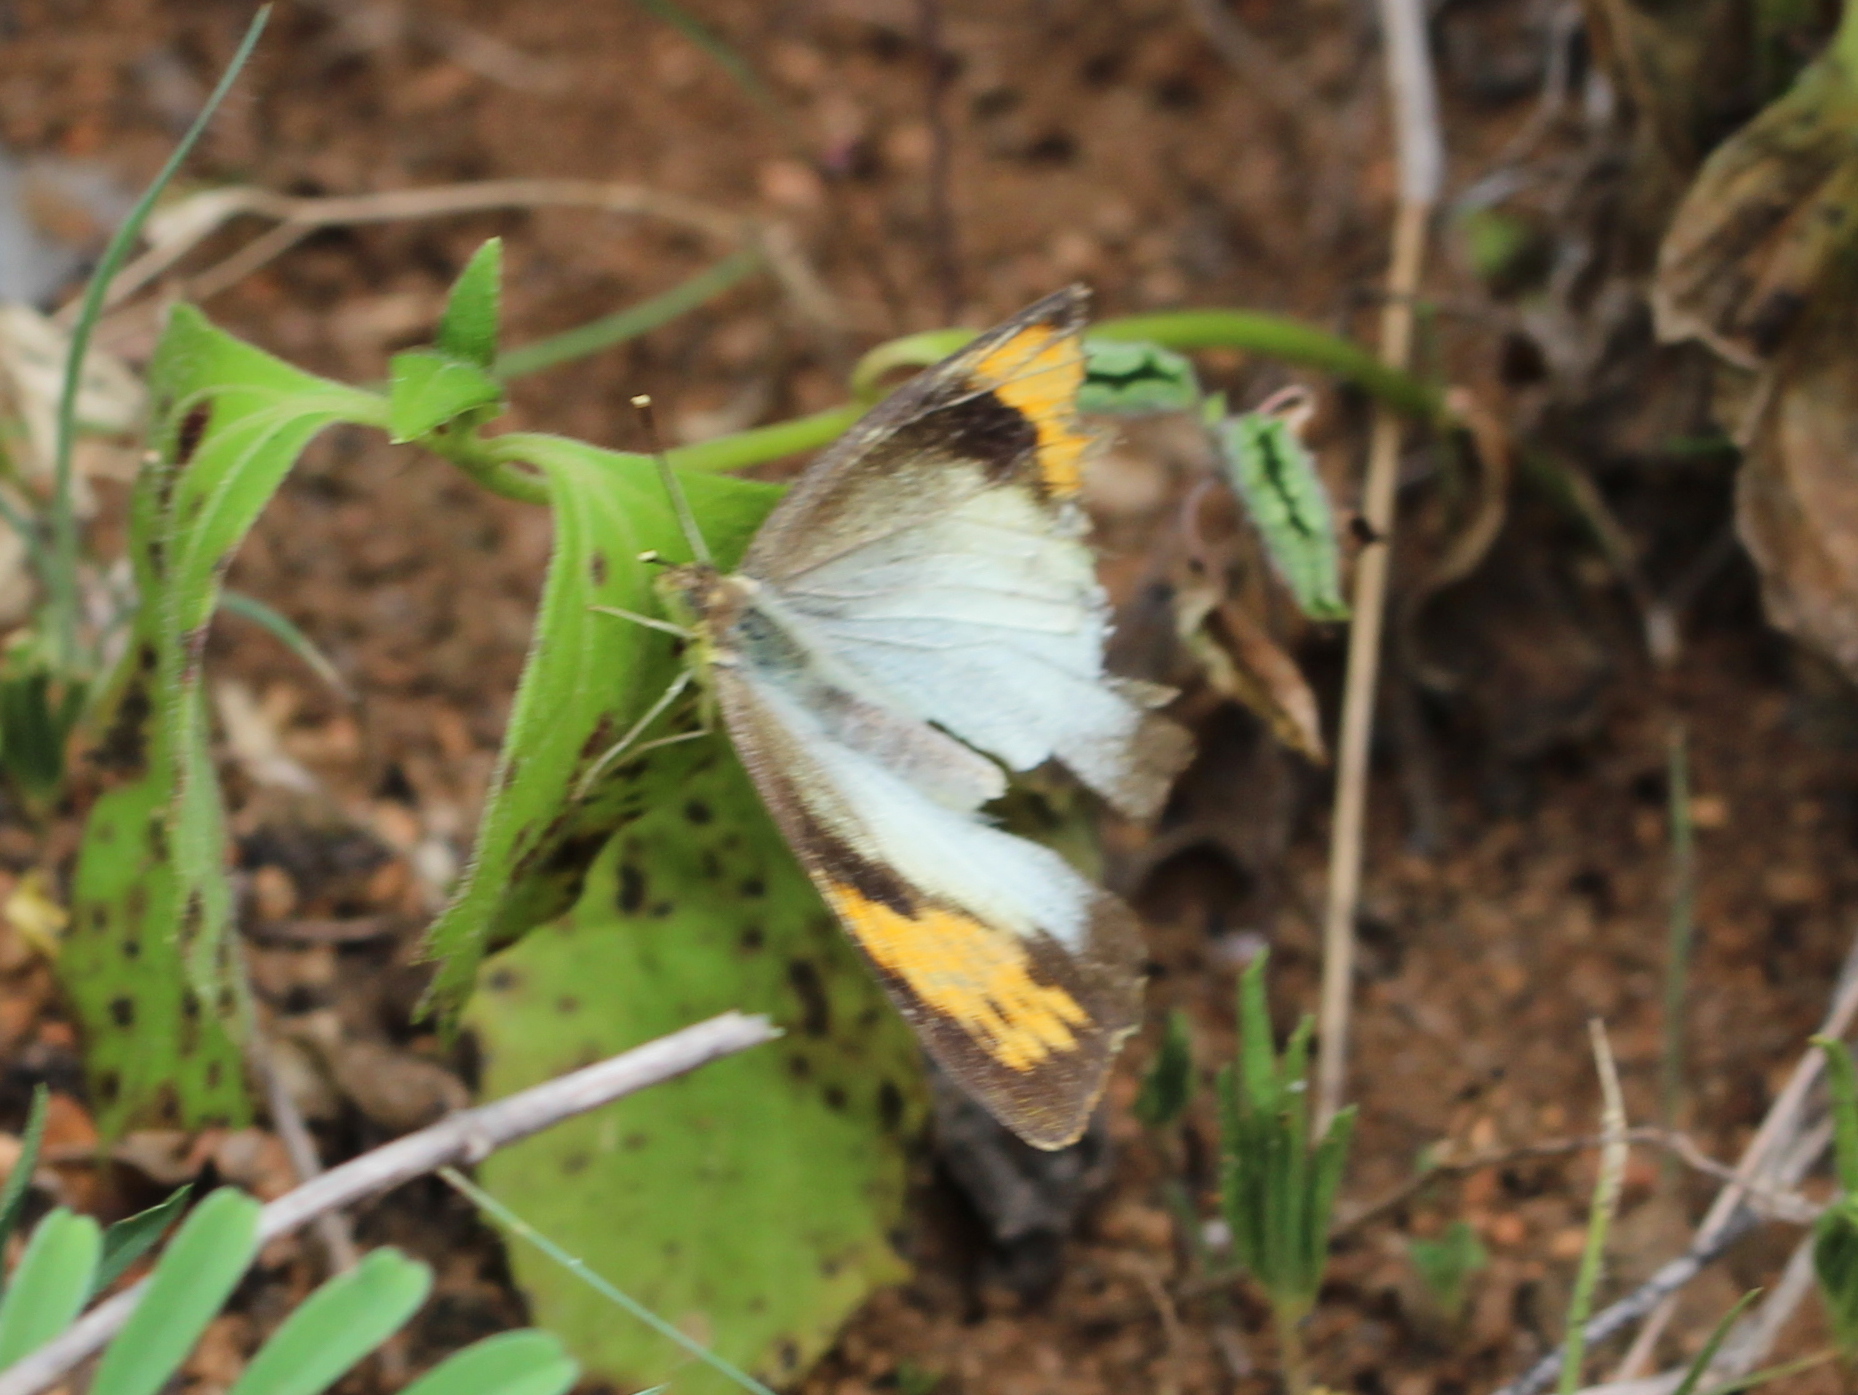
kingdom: Animalia
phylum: Arthropoda
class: Insecta
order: Lepidoptera
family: Pieridae
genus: Ixias
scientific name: Ixias marianne
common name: White orange tip
